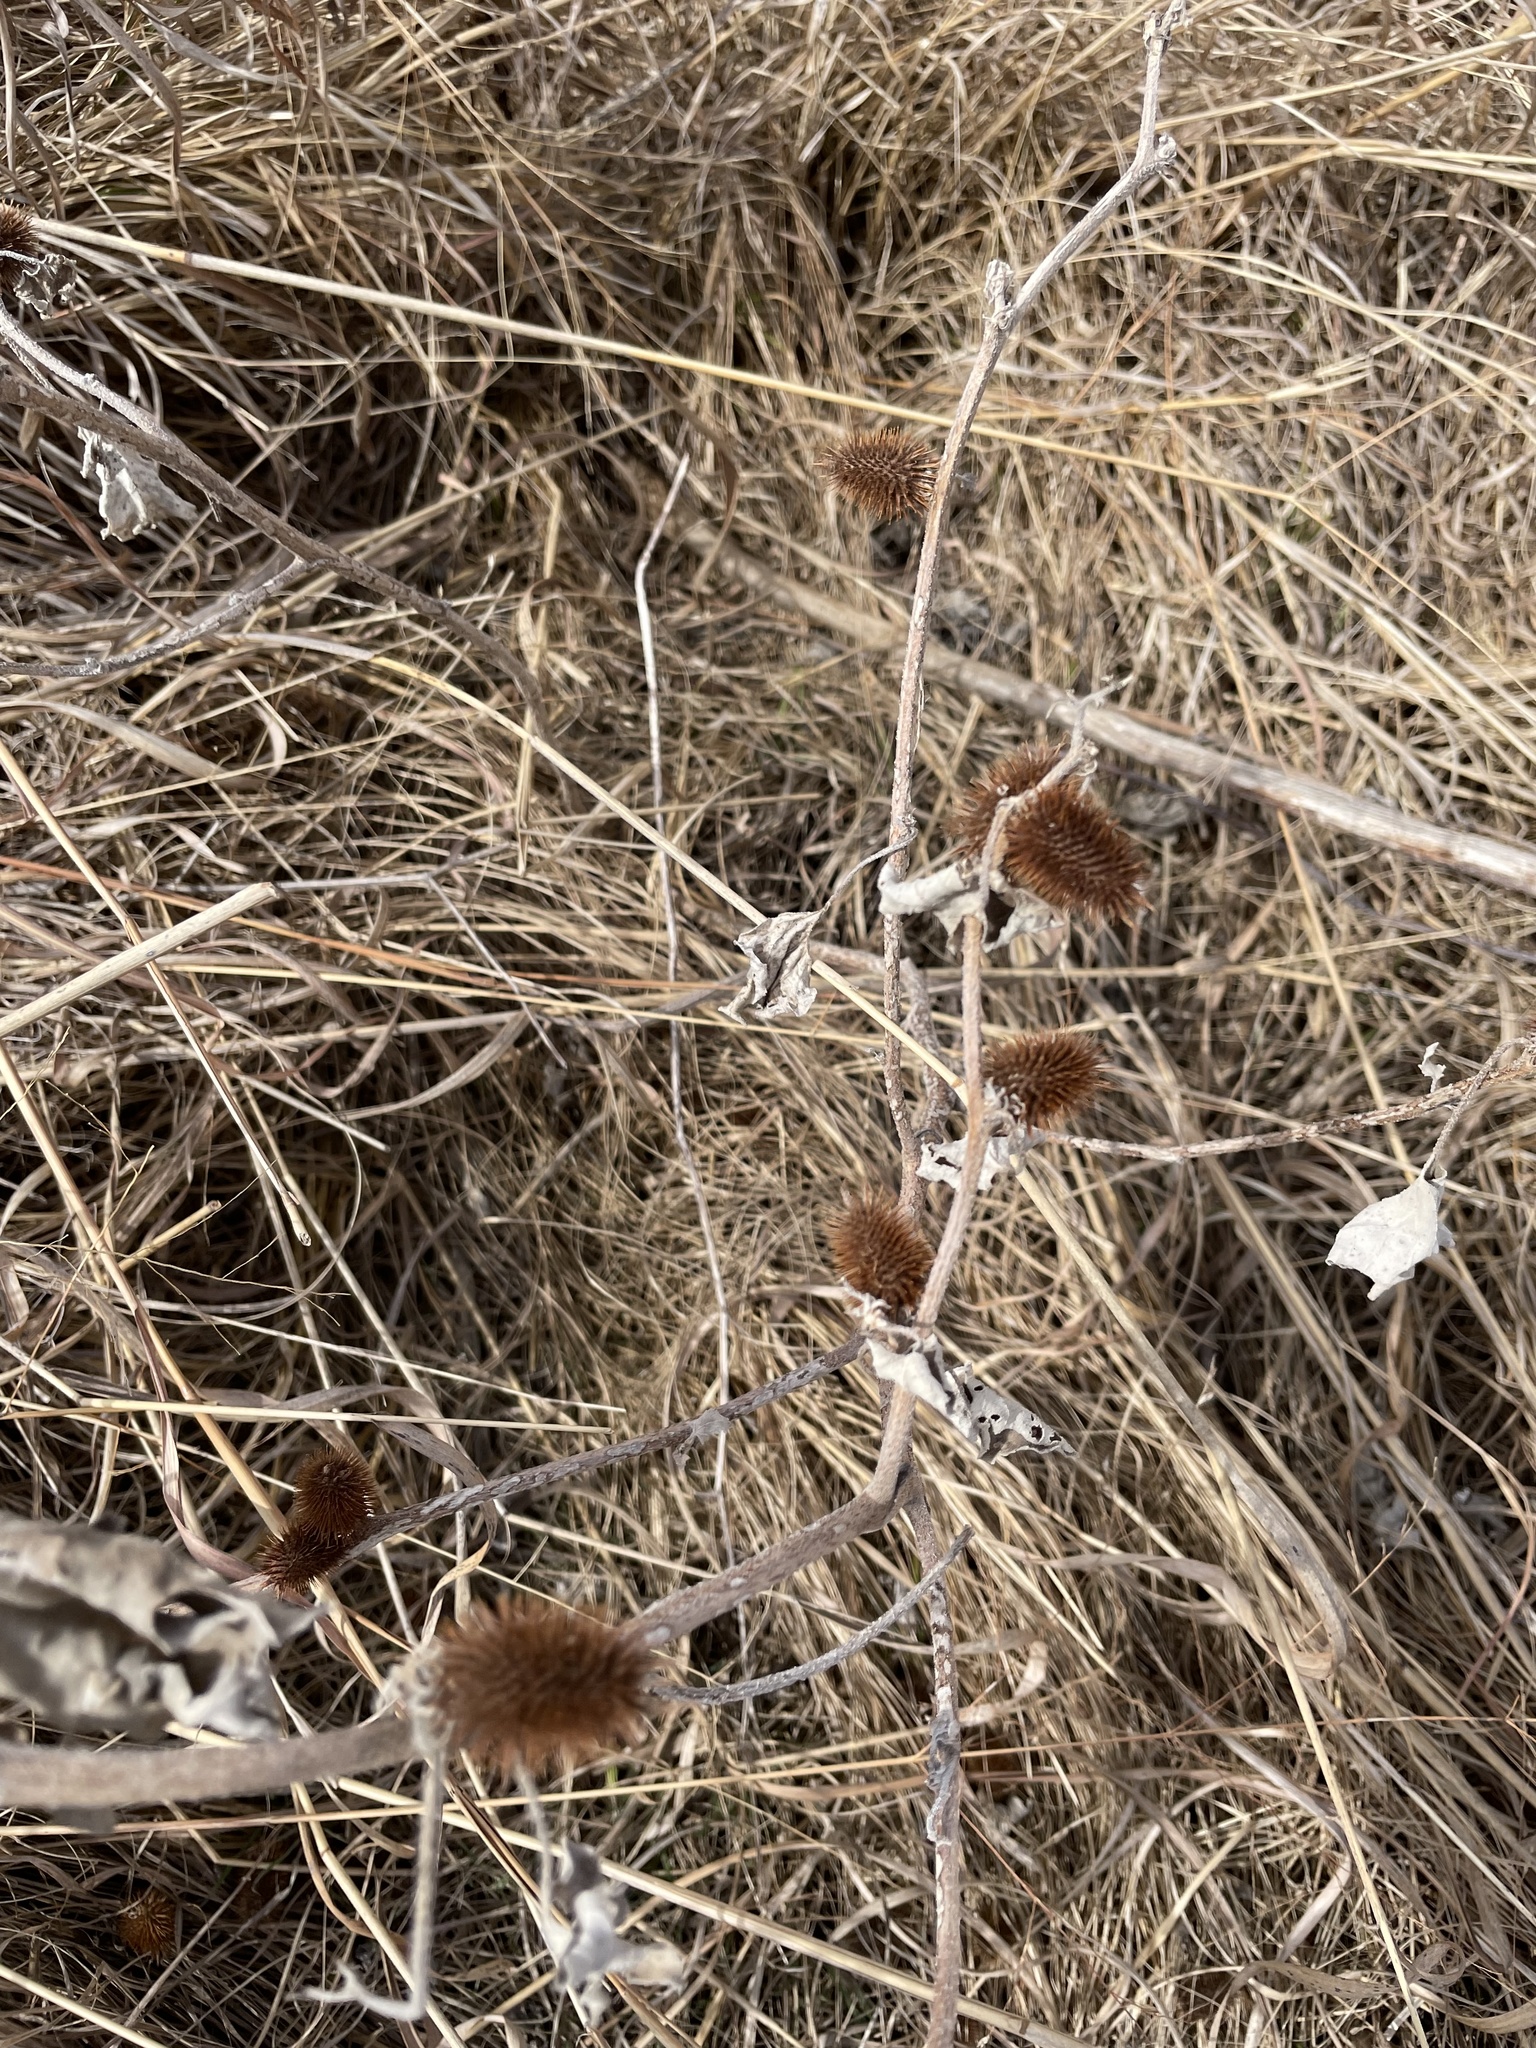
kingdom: Plantae
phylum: Tracheophyta
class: Magnoliopsida
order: Asterales
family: Asteraceae
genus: Xanthium
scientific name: Xanthium strumarium
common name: Rough cocklebur
